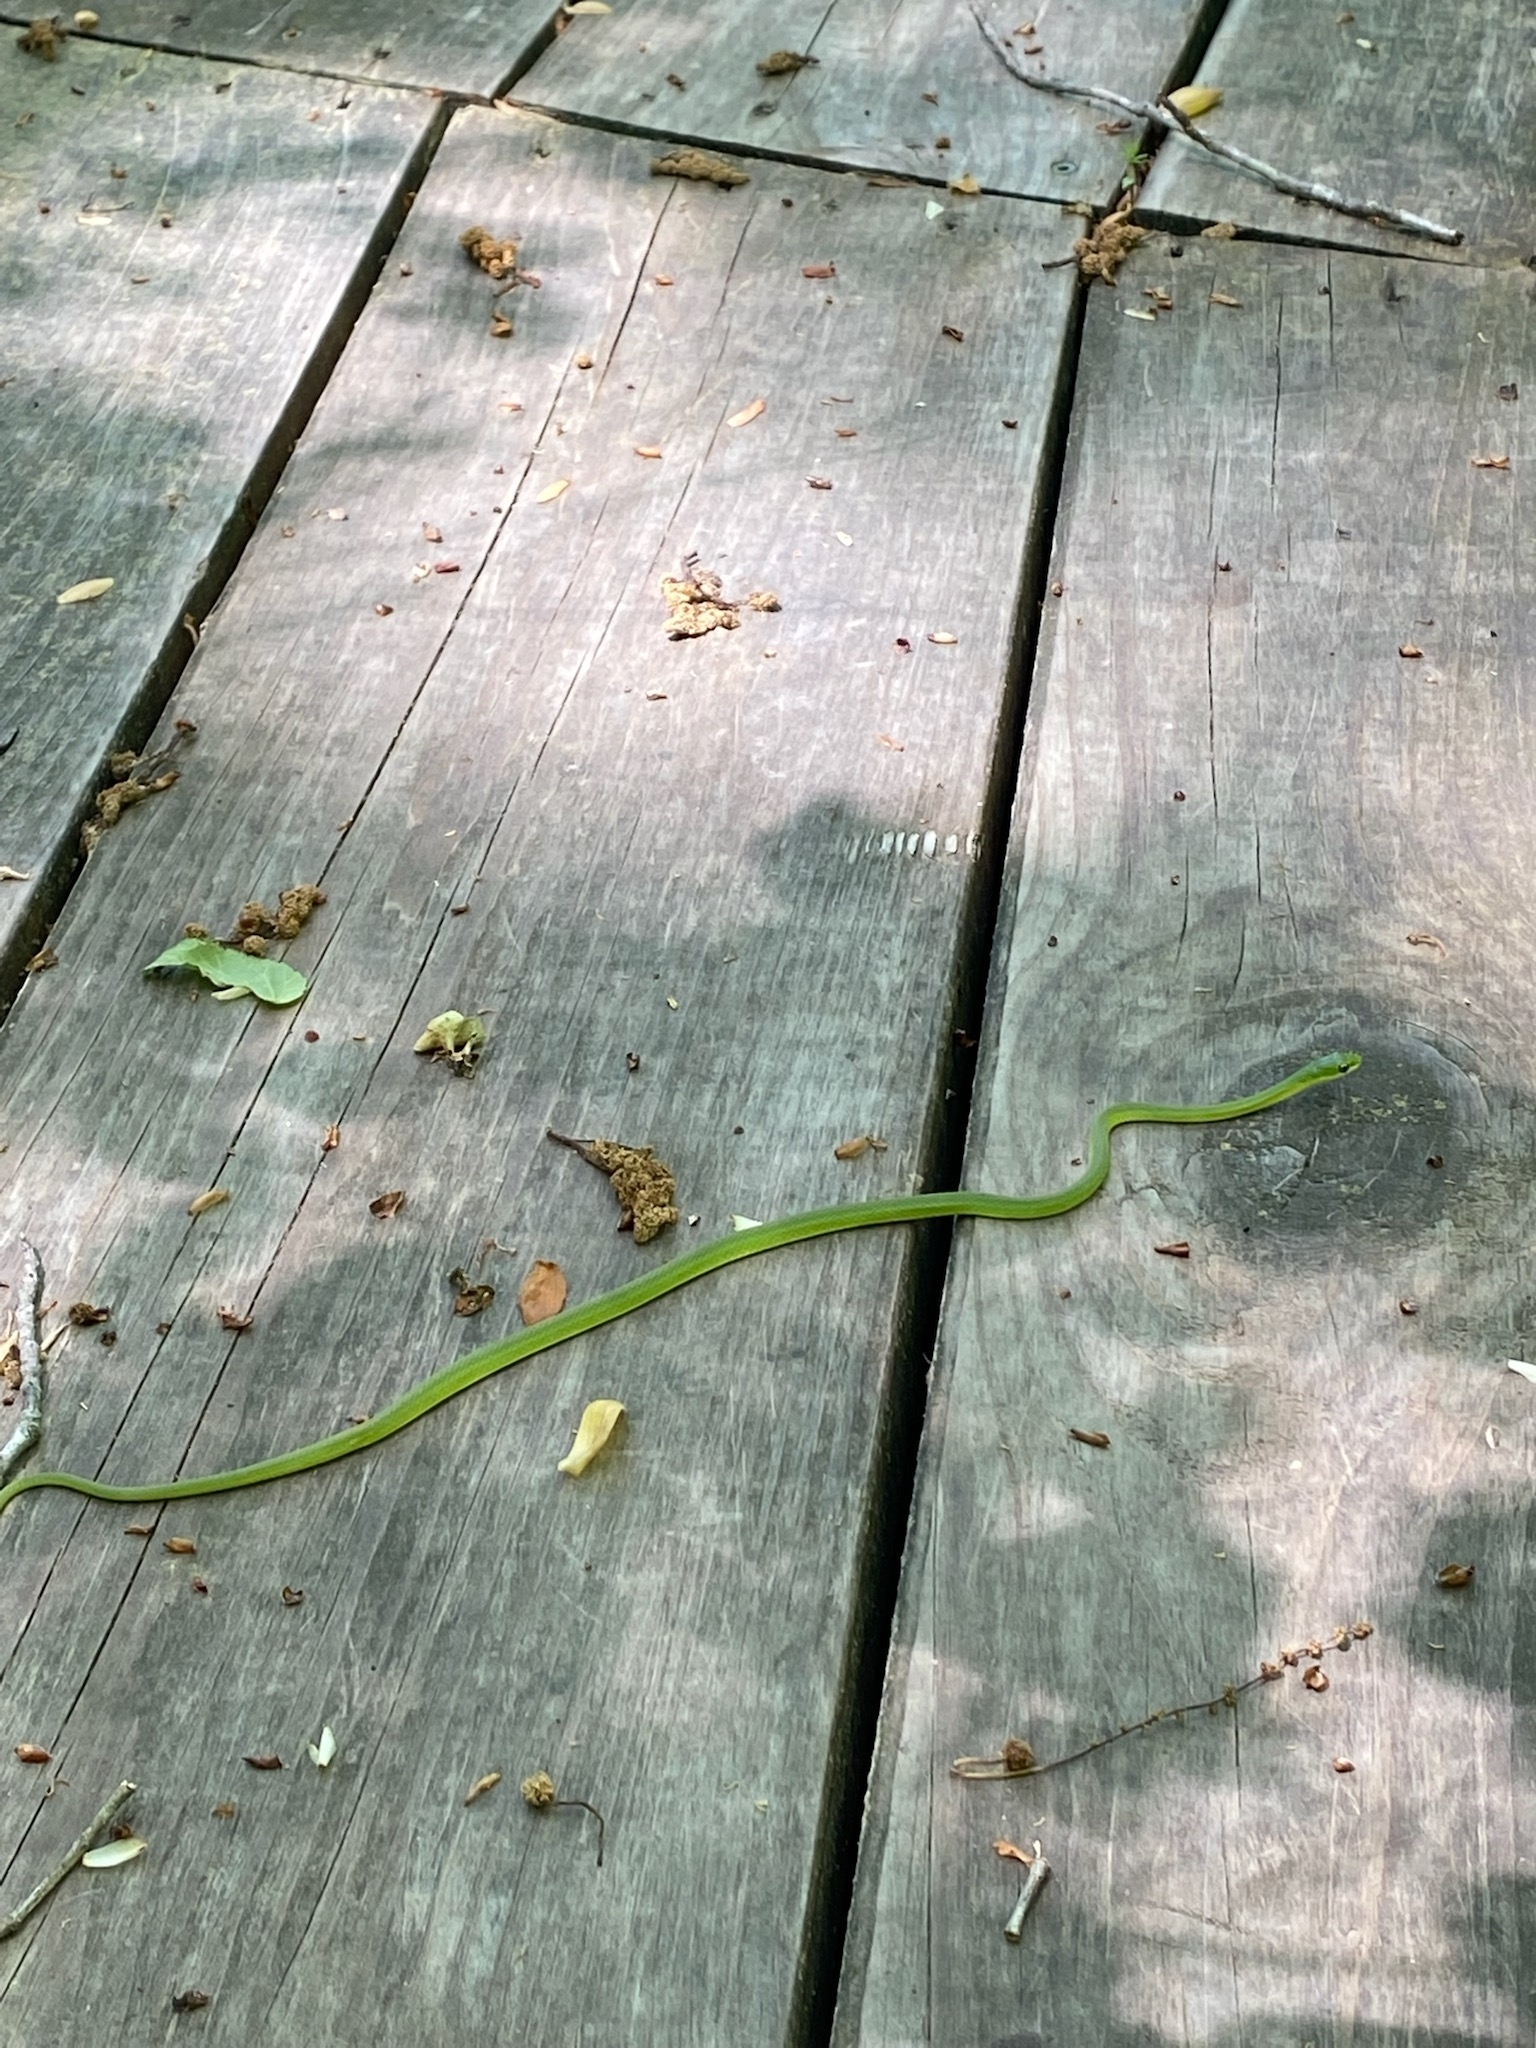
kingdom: Animalia
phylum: Chordata
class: Squamata
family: Colubridae
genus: Opheodrys
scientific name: Opheodrys aestivus
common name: Rough greensnake
